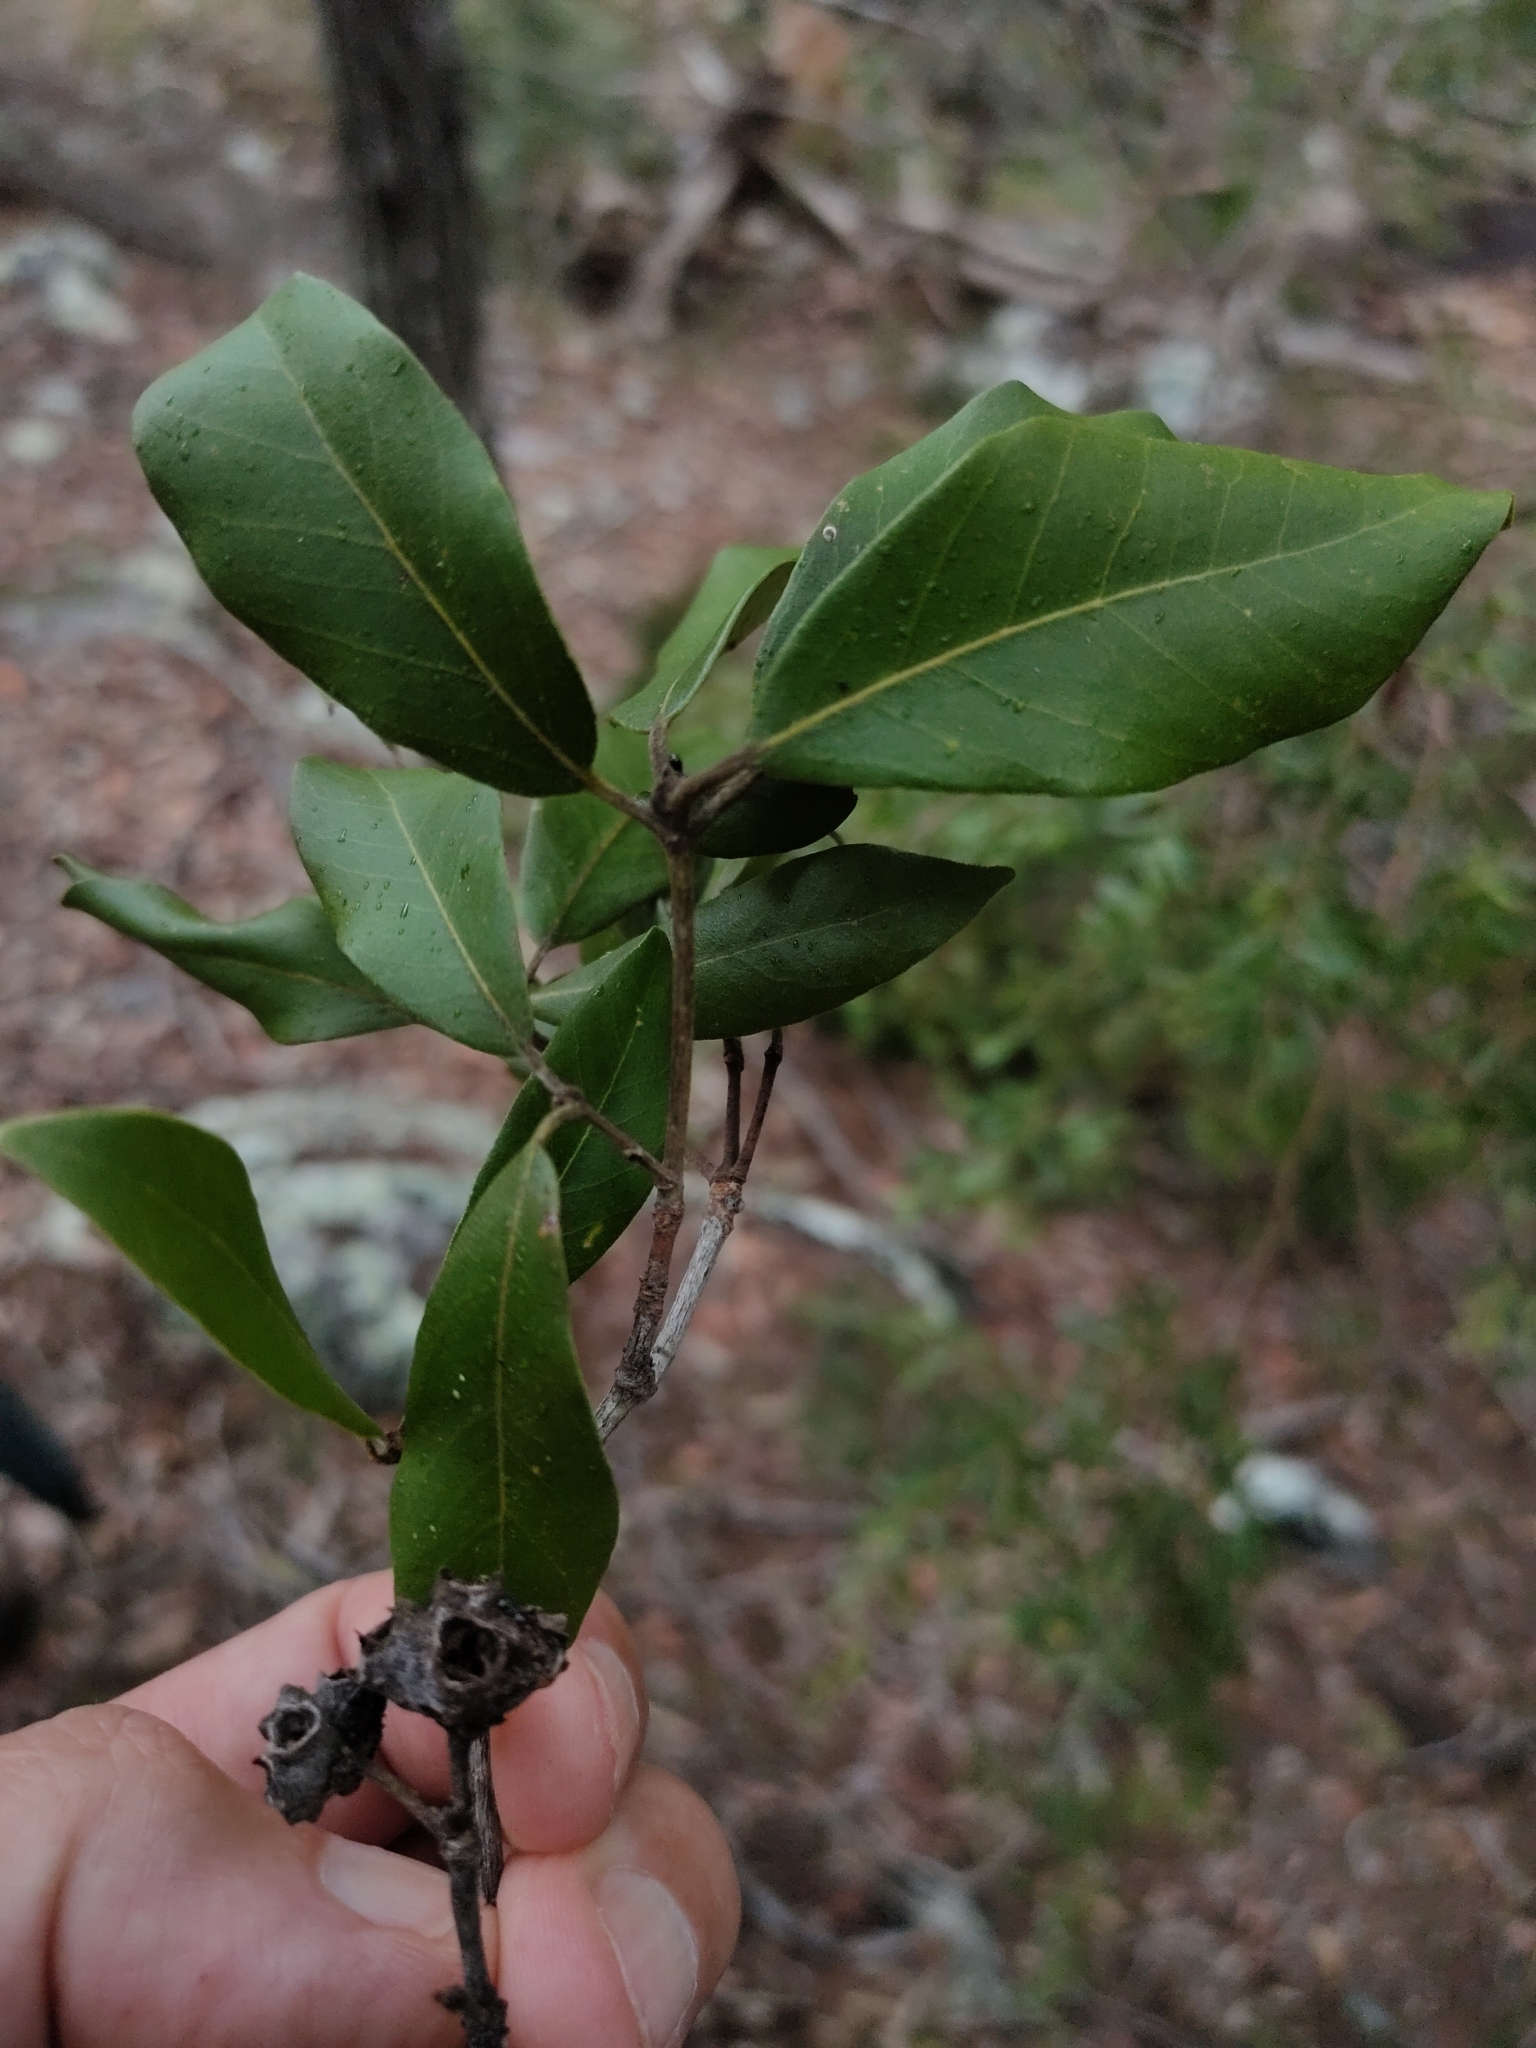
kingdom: Plantae
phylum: Tracheophyta
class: Magnoliopsida
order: Myrtales
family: Myrtaceae
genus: Syncarpia
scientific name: Syncarpia glomulifera
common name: Turpentine tree
